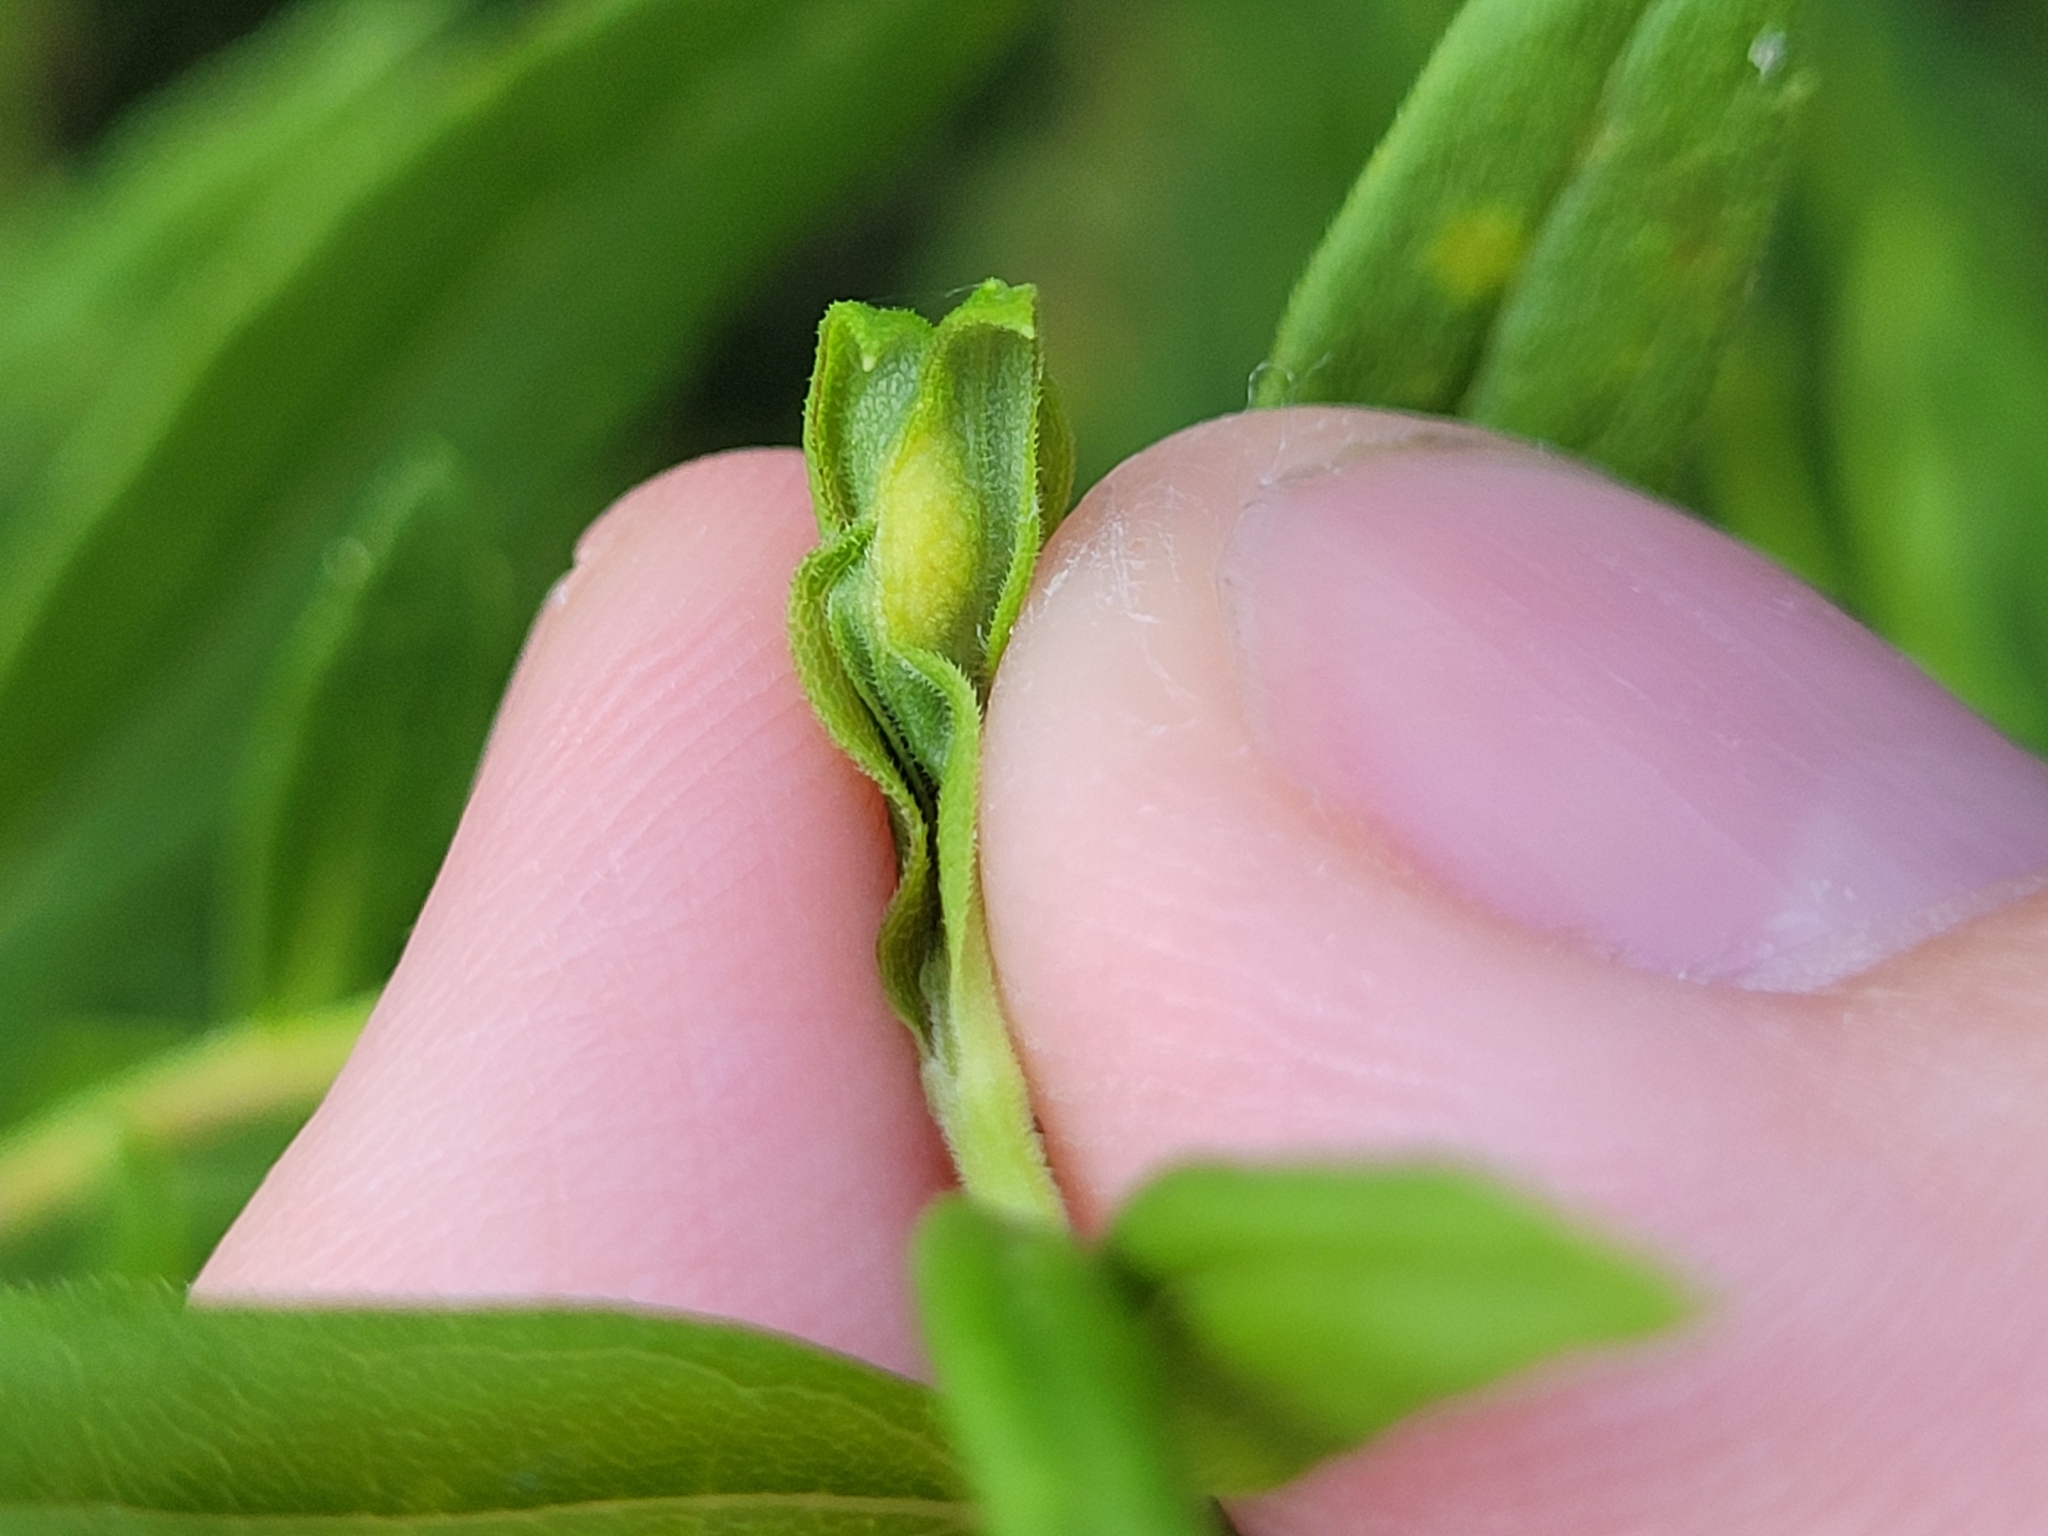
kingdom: Animalia
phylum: Arthropoda
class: Insecta
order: Diptera
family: Cecidomyiidae
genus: Asphondylia
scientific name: Asphondylia solidaginis
